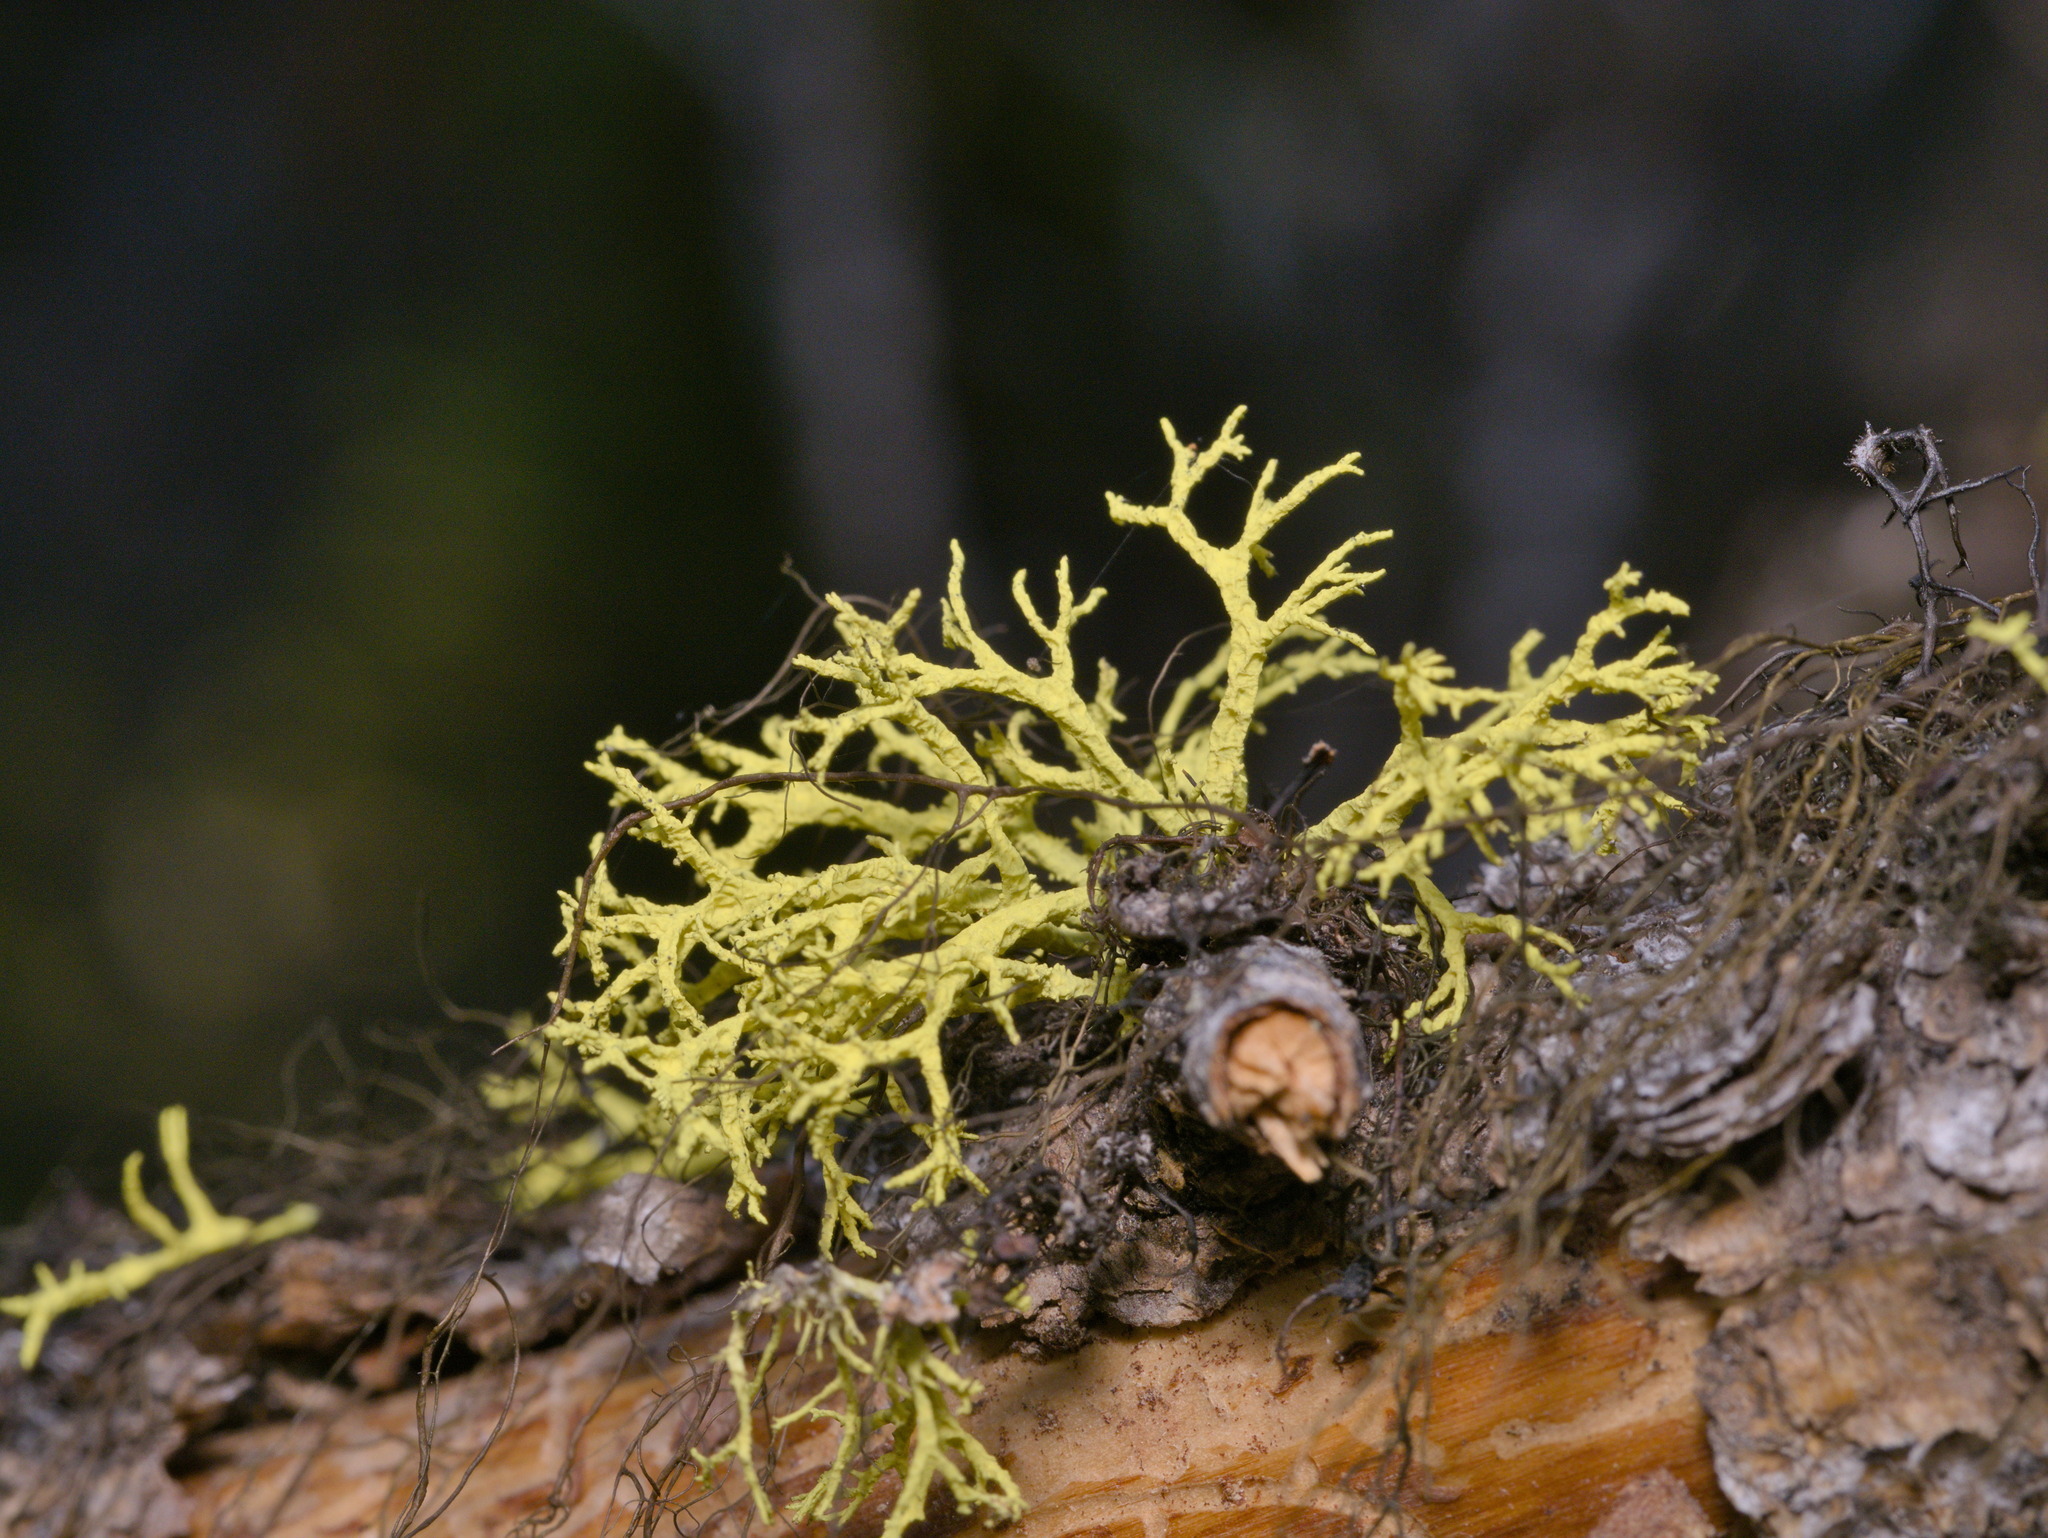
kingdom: Fungi
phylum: Ascomycota
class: Lecanoromycetes
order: Lecanorales
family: Parmeliaceae
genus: Letharia
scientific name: Letharia lupina
